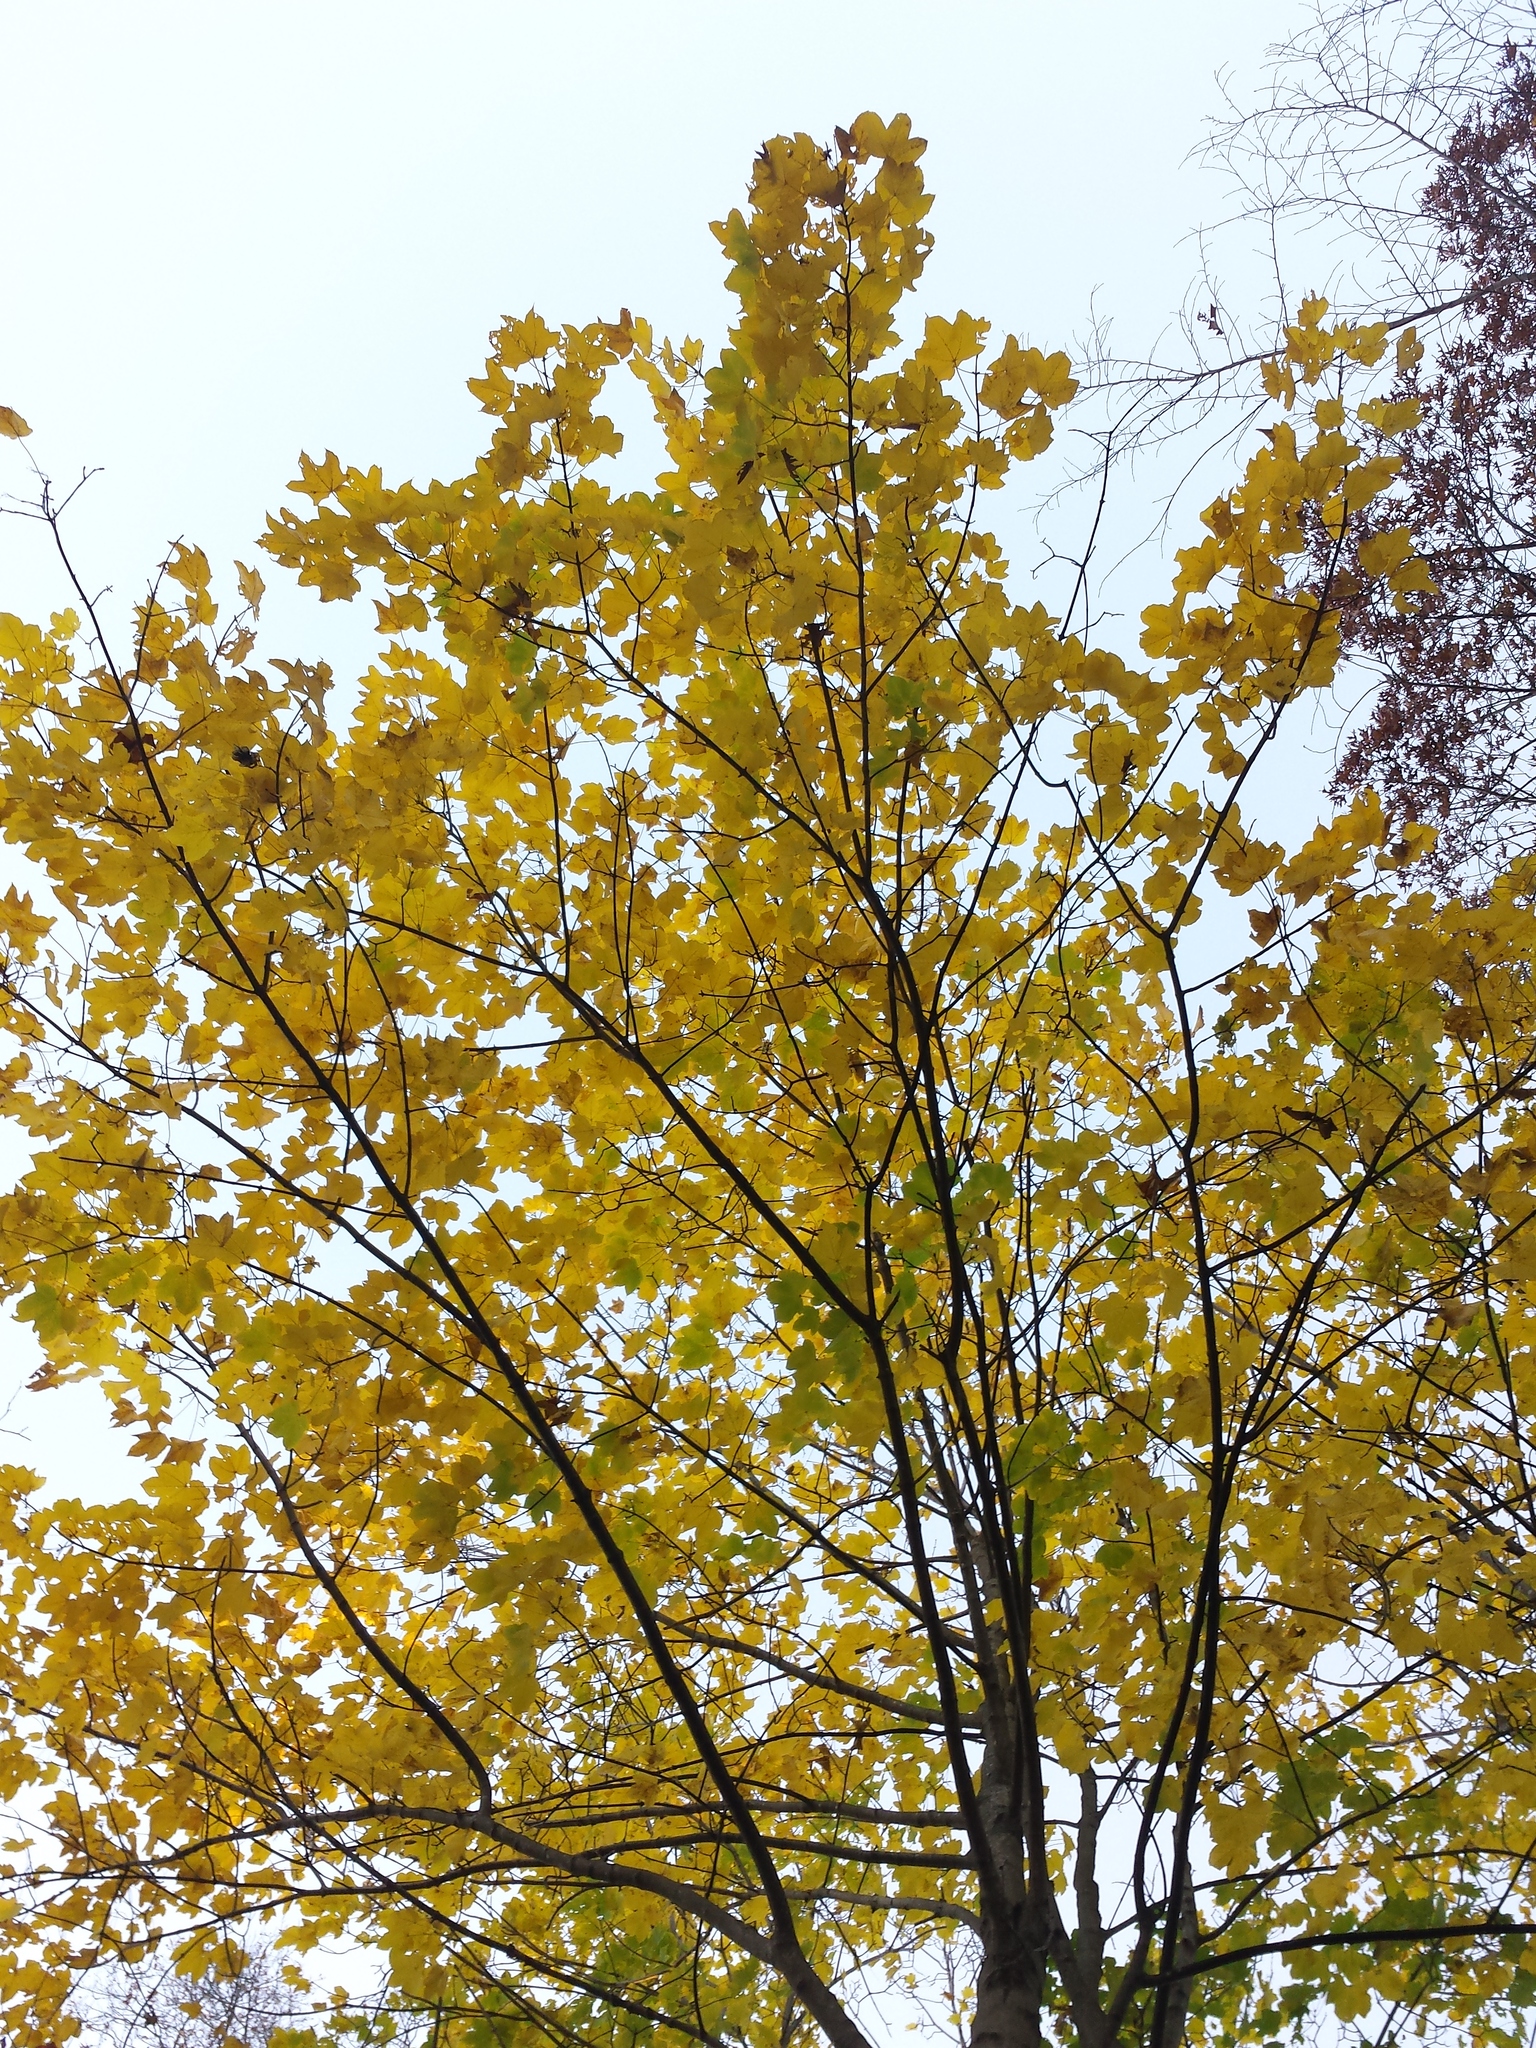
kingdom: Plantae
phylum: Tracheophyta
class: Magnoliopsida
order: Sapindales
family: Sapindaceae
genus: Acer
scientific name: Acer pseudoplatanus
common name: Sycamore
